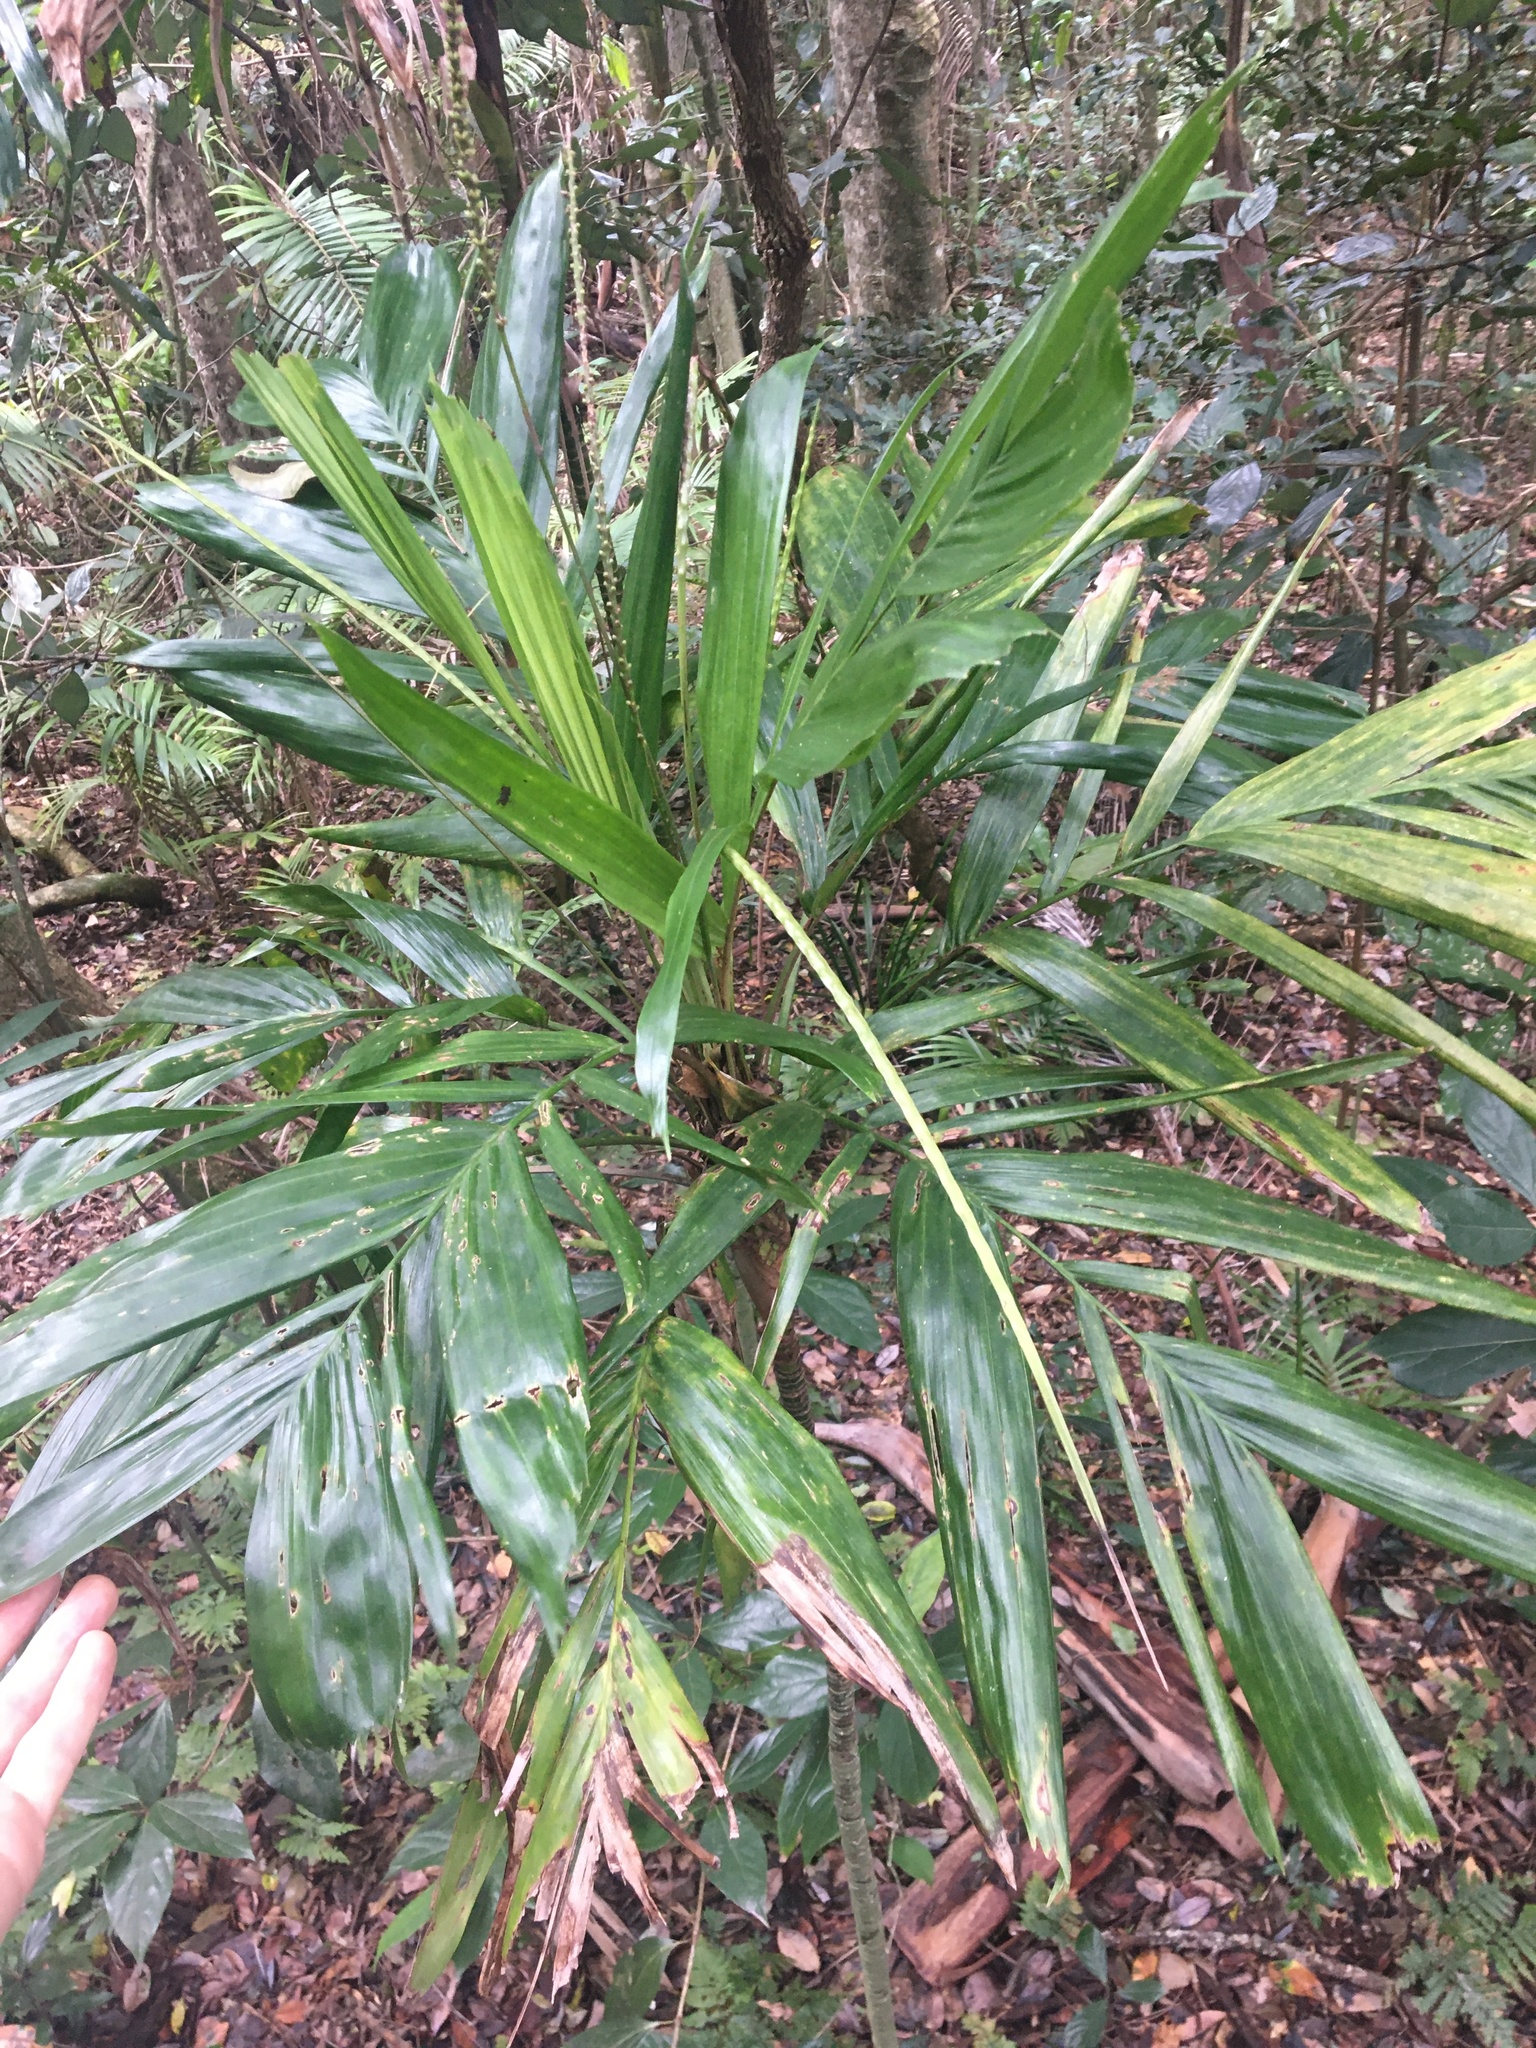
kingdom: Plantae
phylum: Tracheophyta
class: Liliopsida
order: Arecales
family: Arecaceae
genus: Linospadix
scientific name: Linospadix monostachyus
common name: Walking-stick palm
